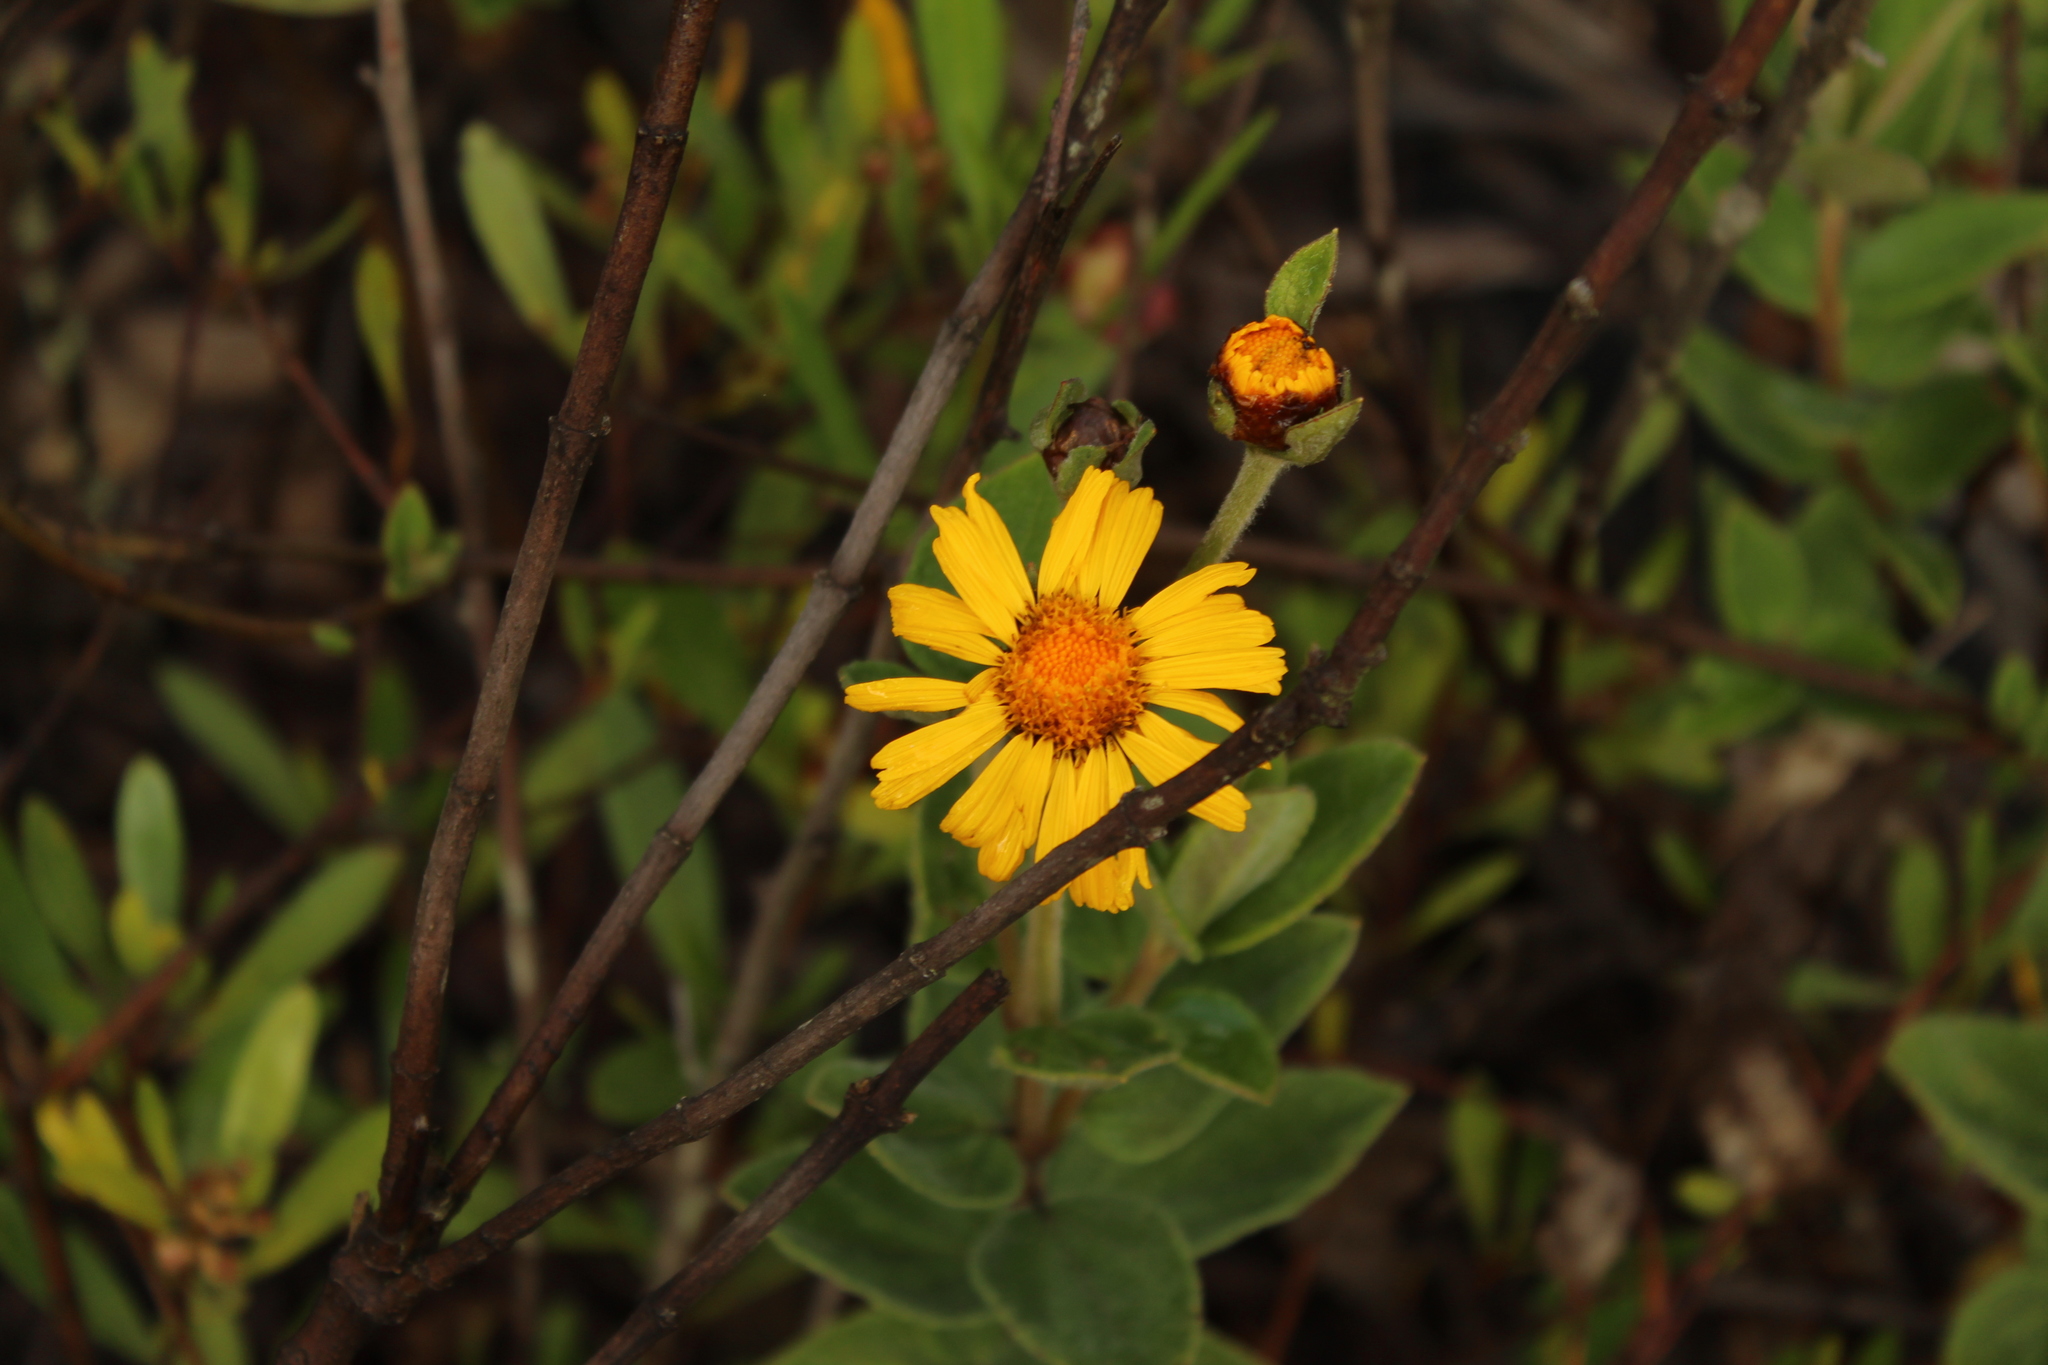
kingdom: Plantae
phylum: Tracheophyta
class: Magnoliopsida
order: Asterales
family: Asteraceae
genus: Calea
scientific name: Calea peruviana
